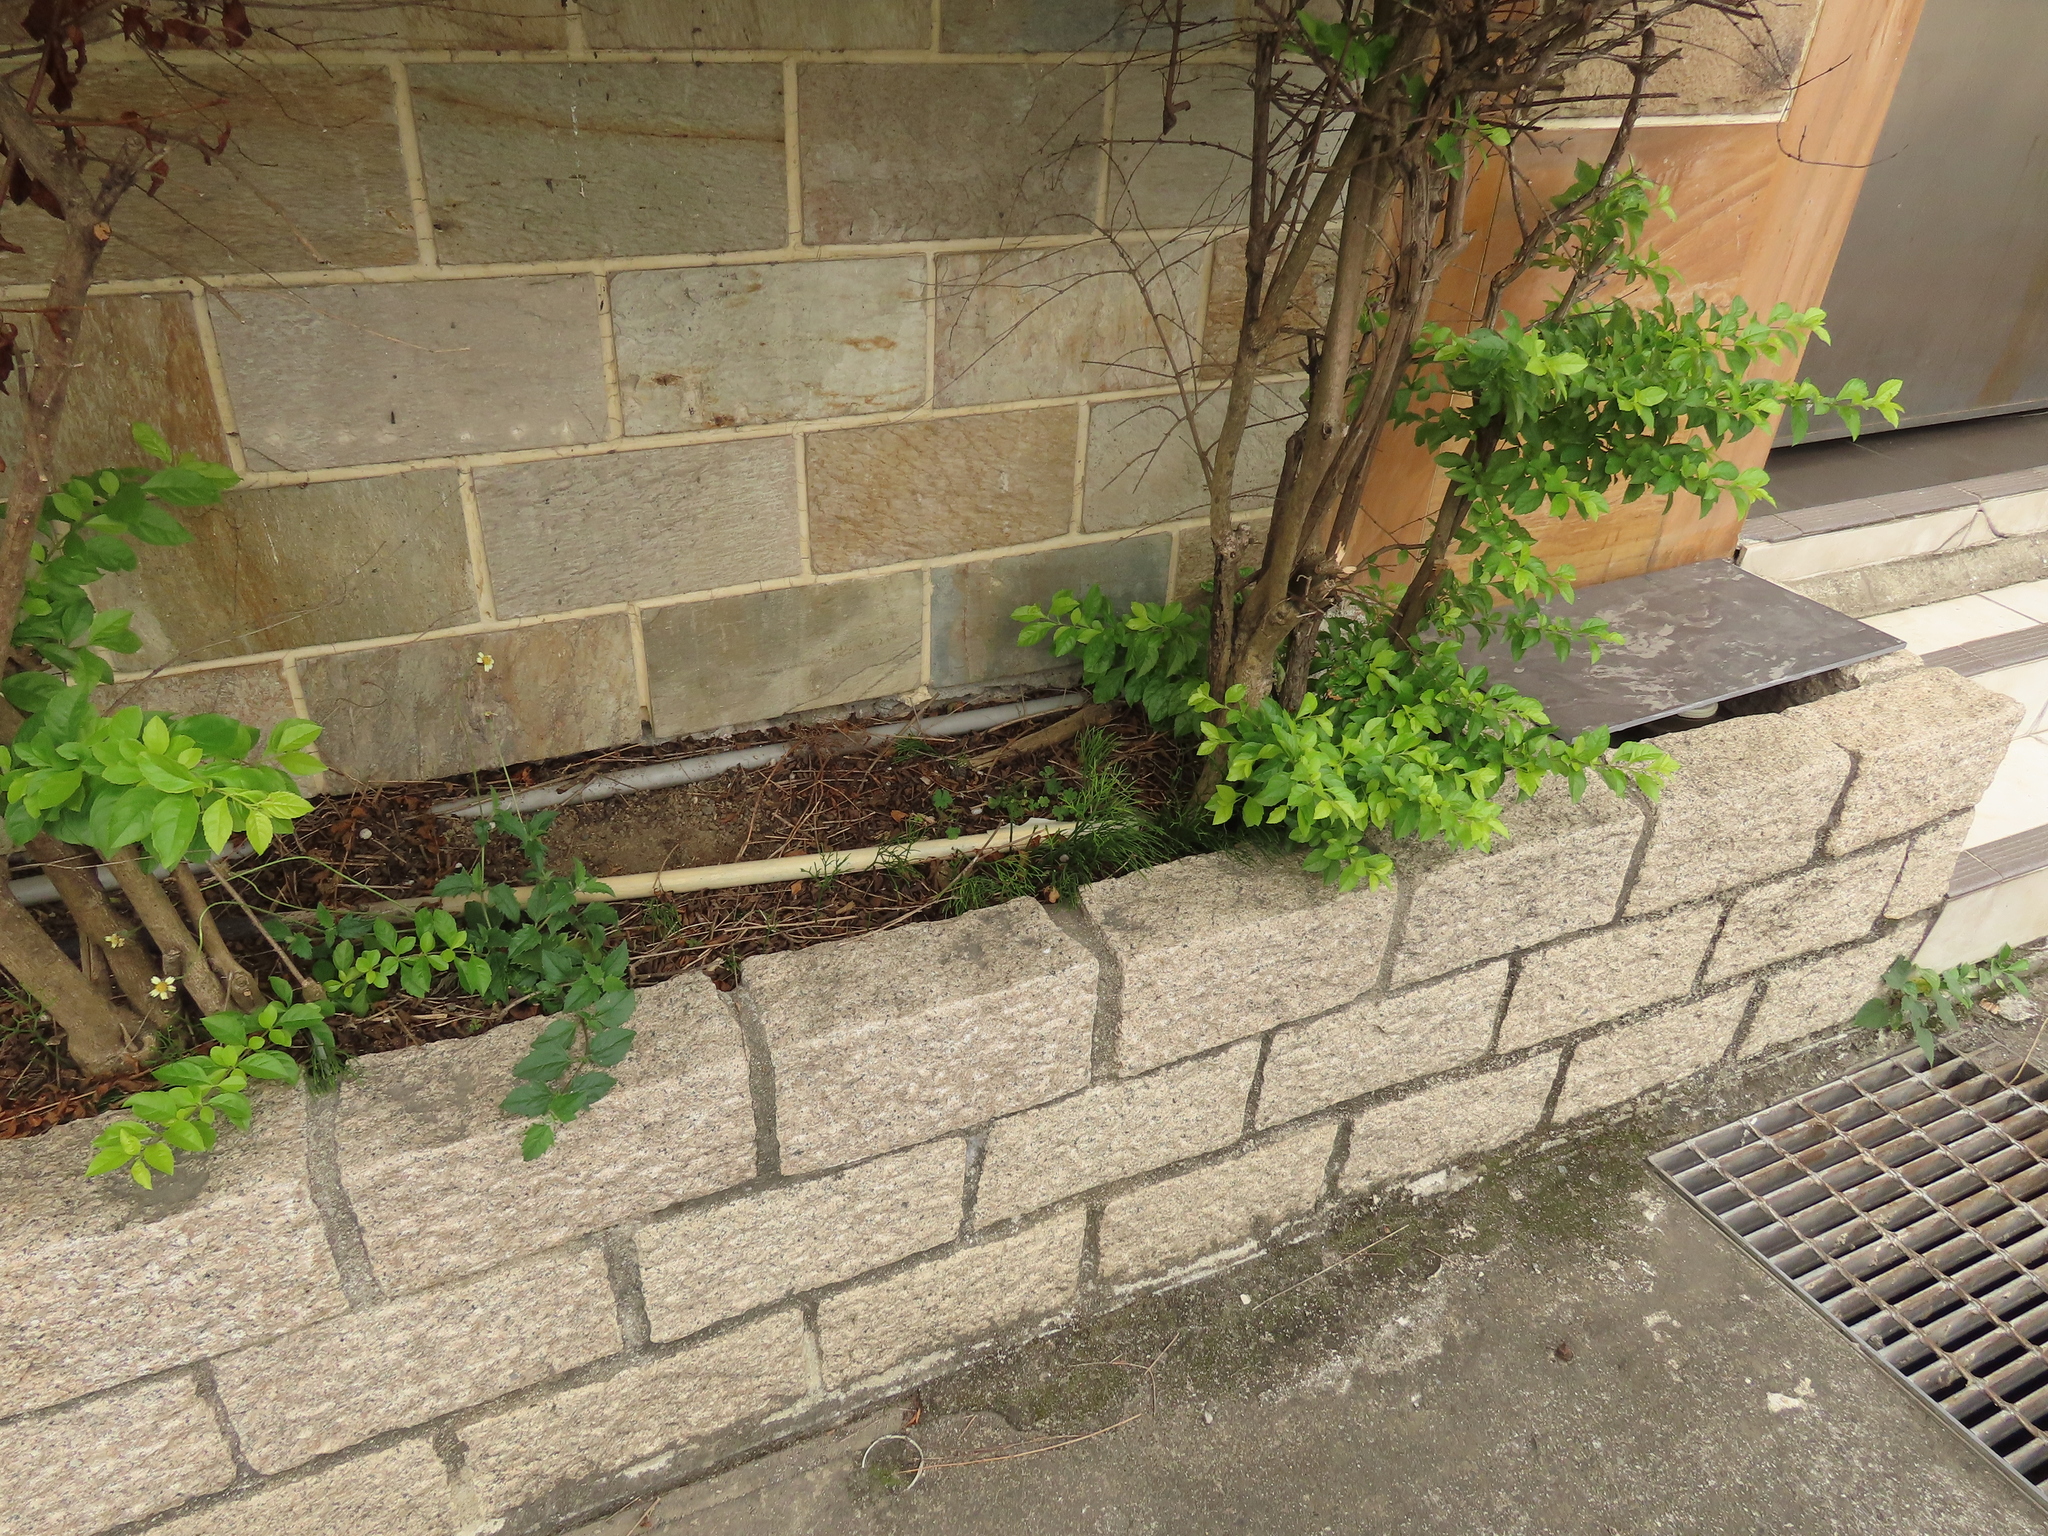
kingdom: Plantae
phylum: Tracheophyta
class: Polypodiopsida
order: Psilotales
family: Psilotaceae
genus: Psilotum
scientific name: Psilotum nudum
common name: Skeleton fork fern
